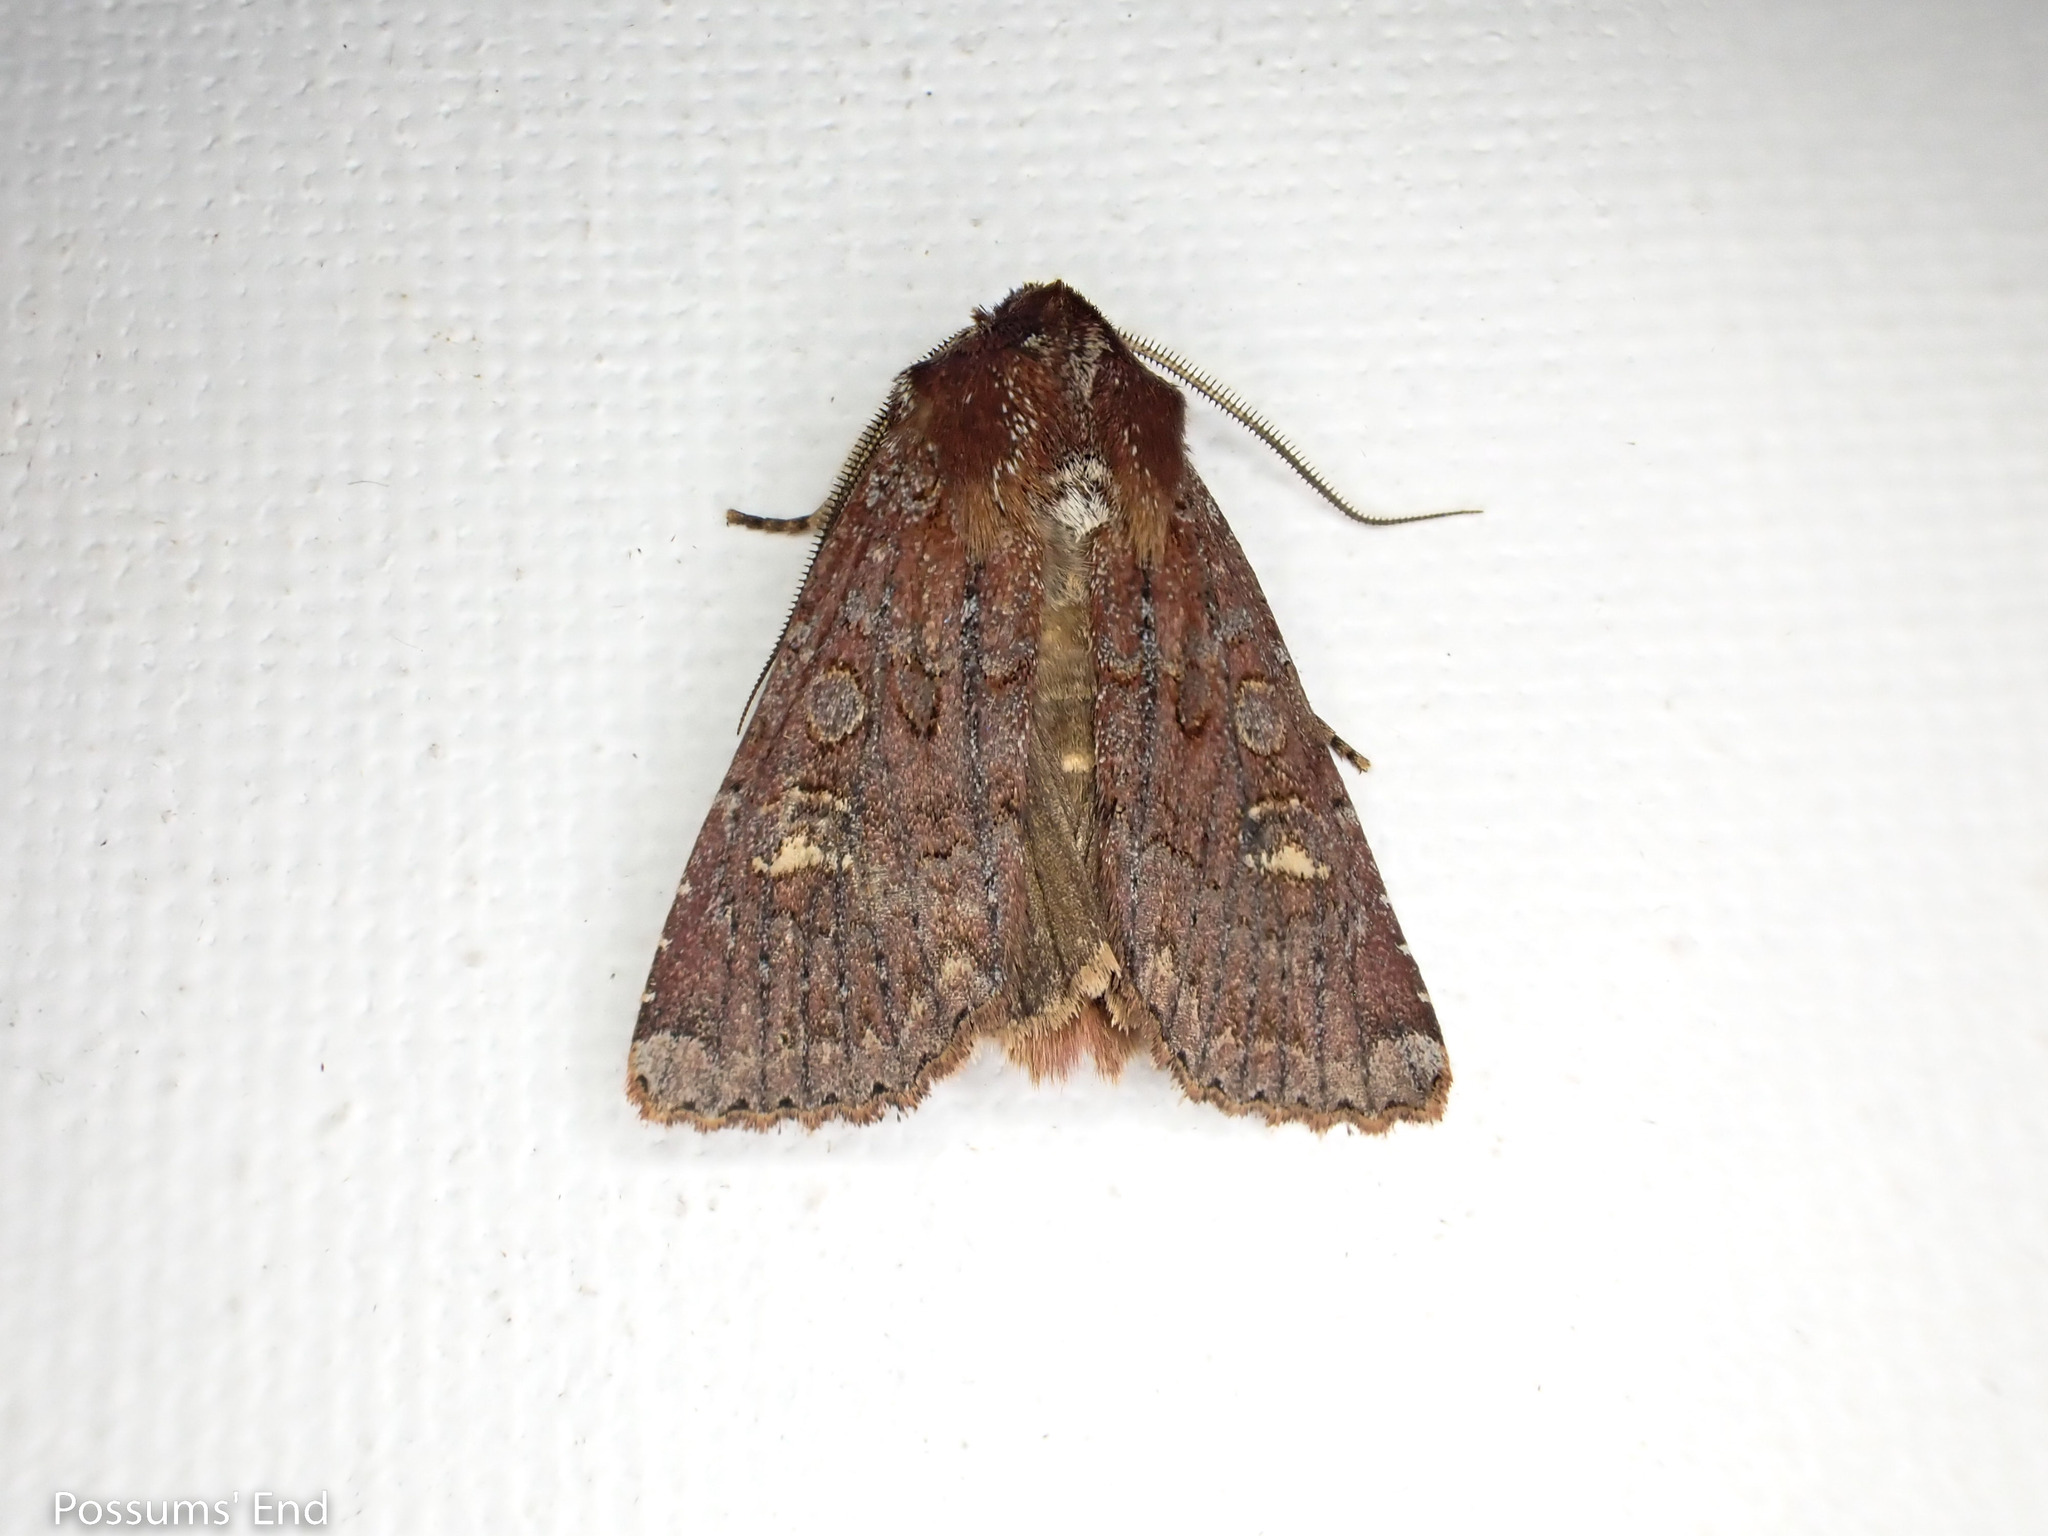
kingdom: Animalia
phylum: Arthropoda
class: Insecta
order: Lepidoptera
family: Noctuidae
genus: Ichneutica
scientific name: Ichneutica agorastis
